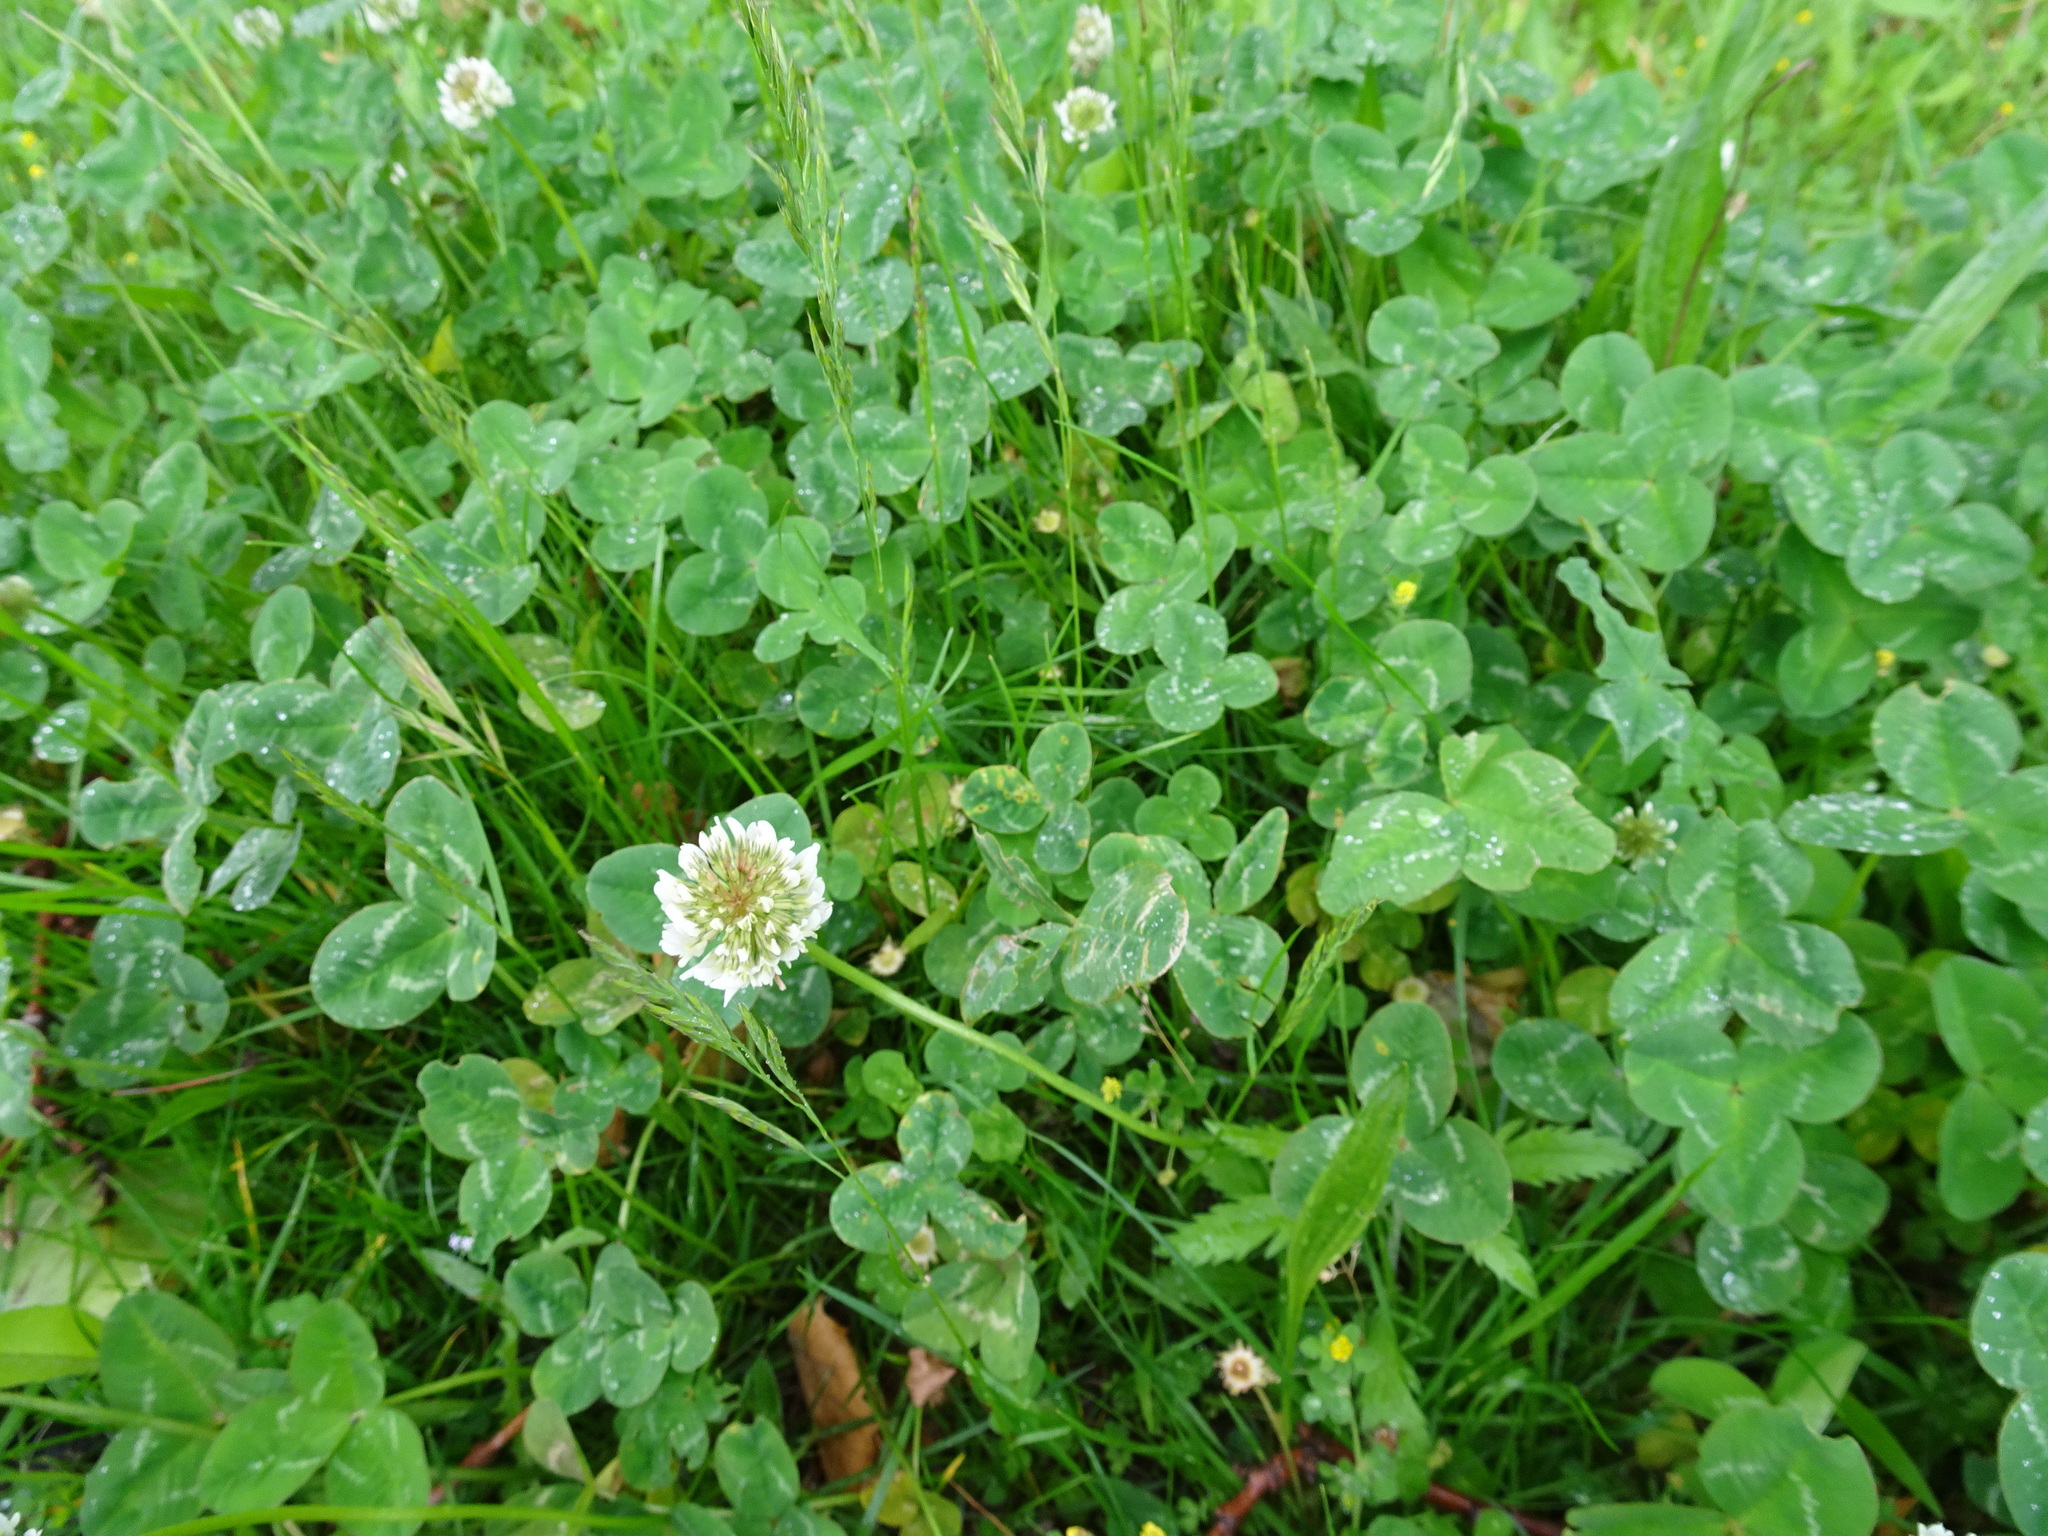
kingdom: Plantae
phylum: Tracheophyta
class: Magnoliopsida
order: Fabales
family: Fabaceae
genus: Trifolium
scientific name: Trifolium repens
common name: White clover
